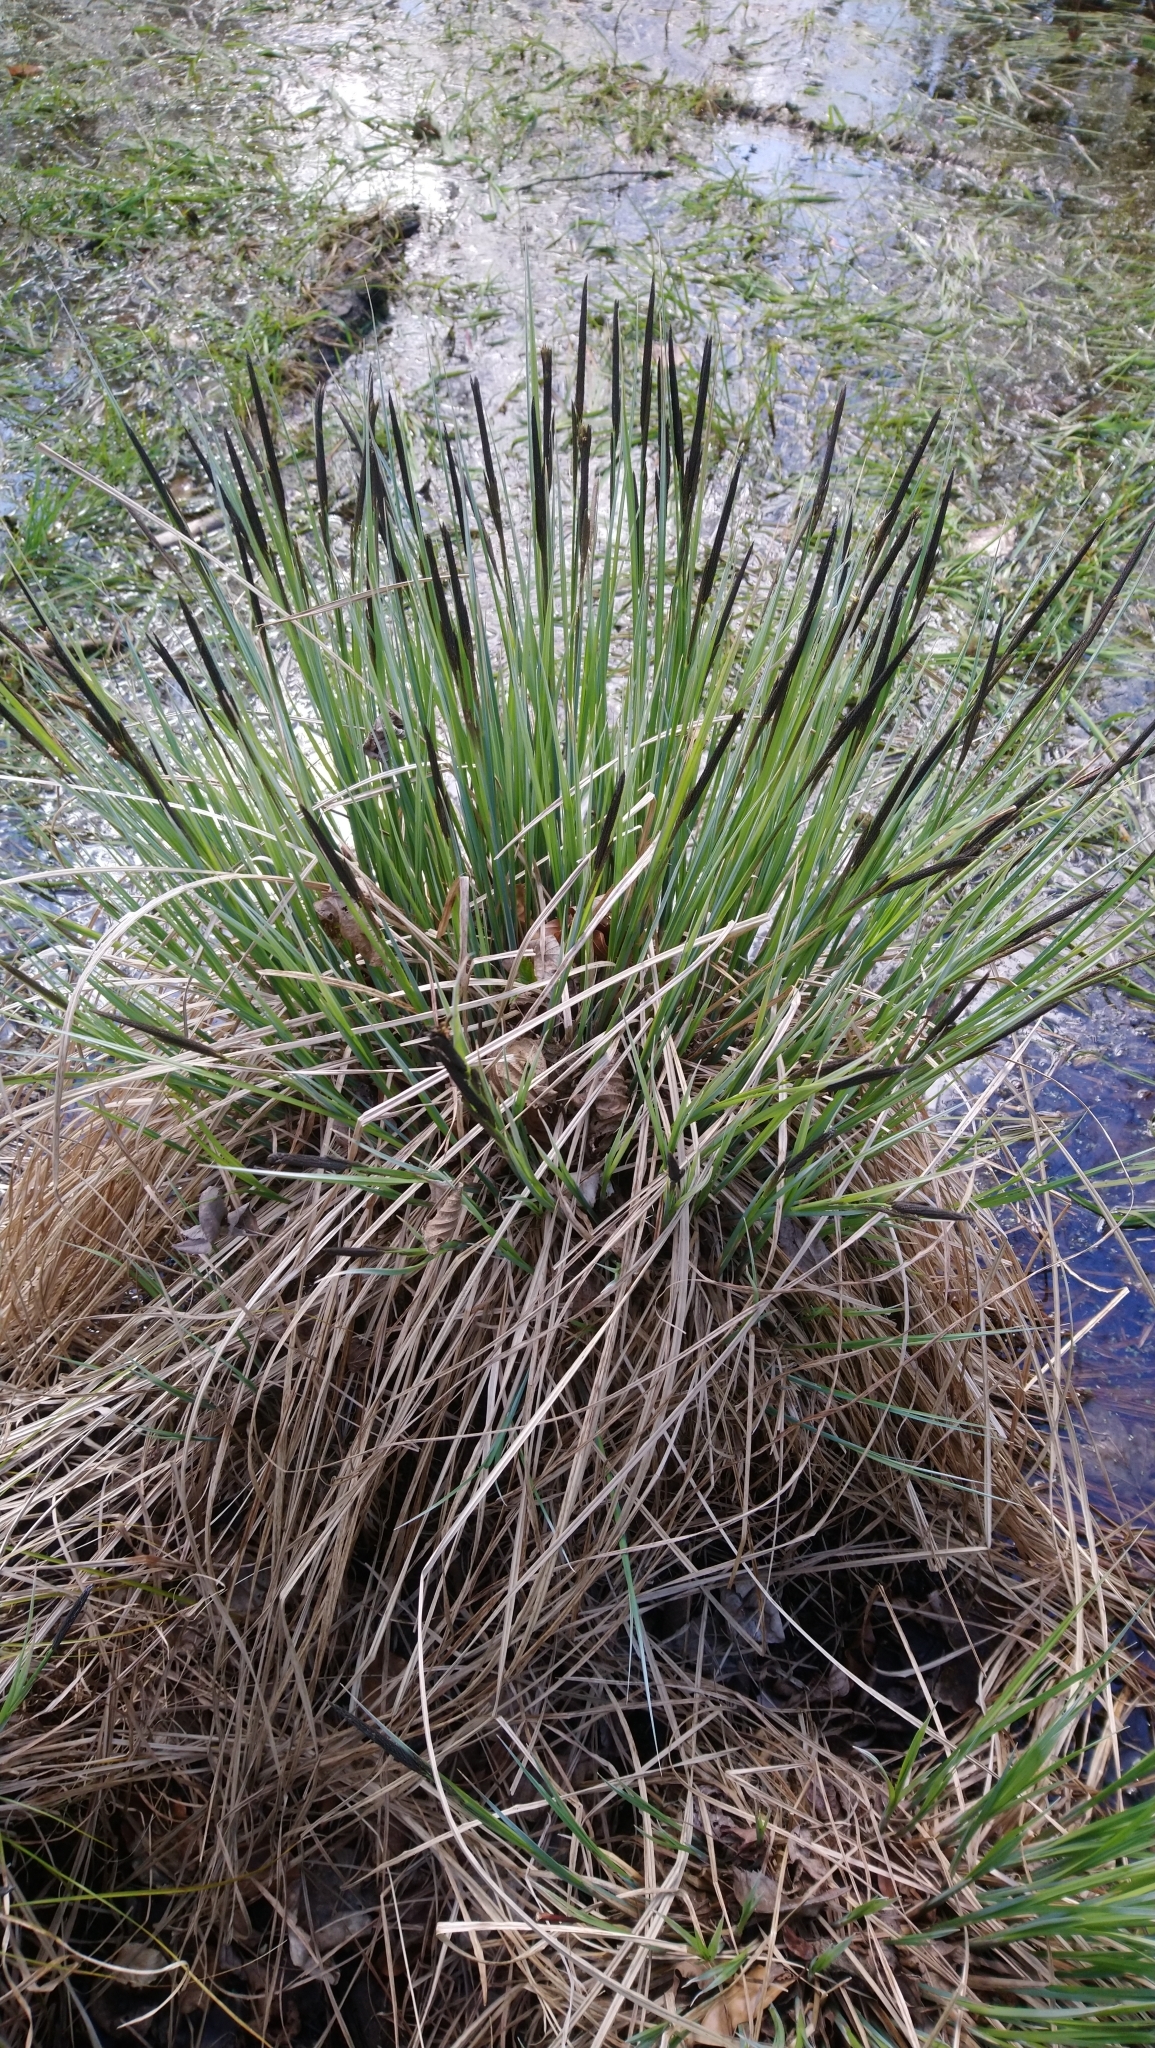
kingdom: Plantae
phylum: Tracheophyta
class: Liliopsida
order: Poales
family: Cyperaceae
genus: Carex
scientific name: Carex elata
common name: Tufted sedge
